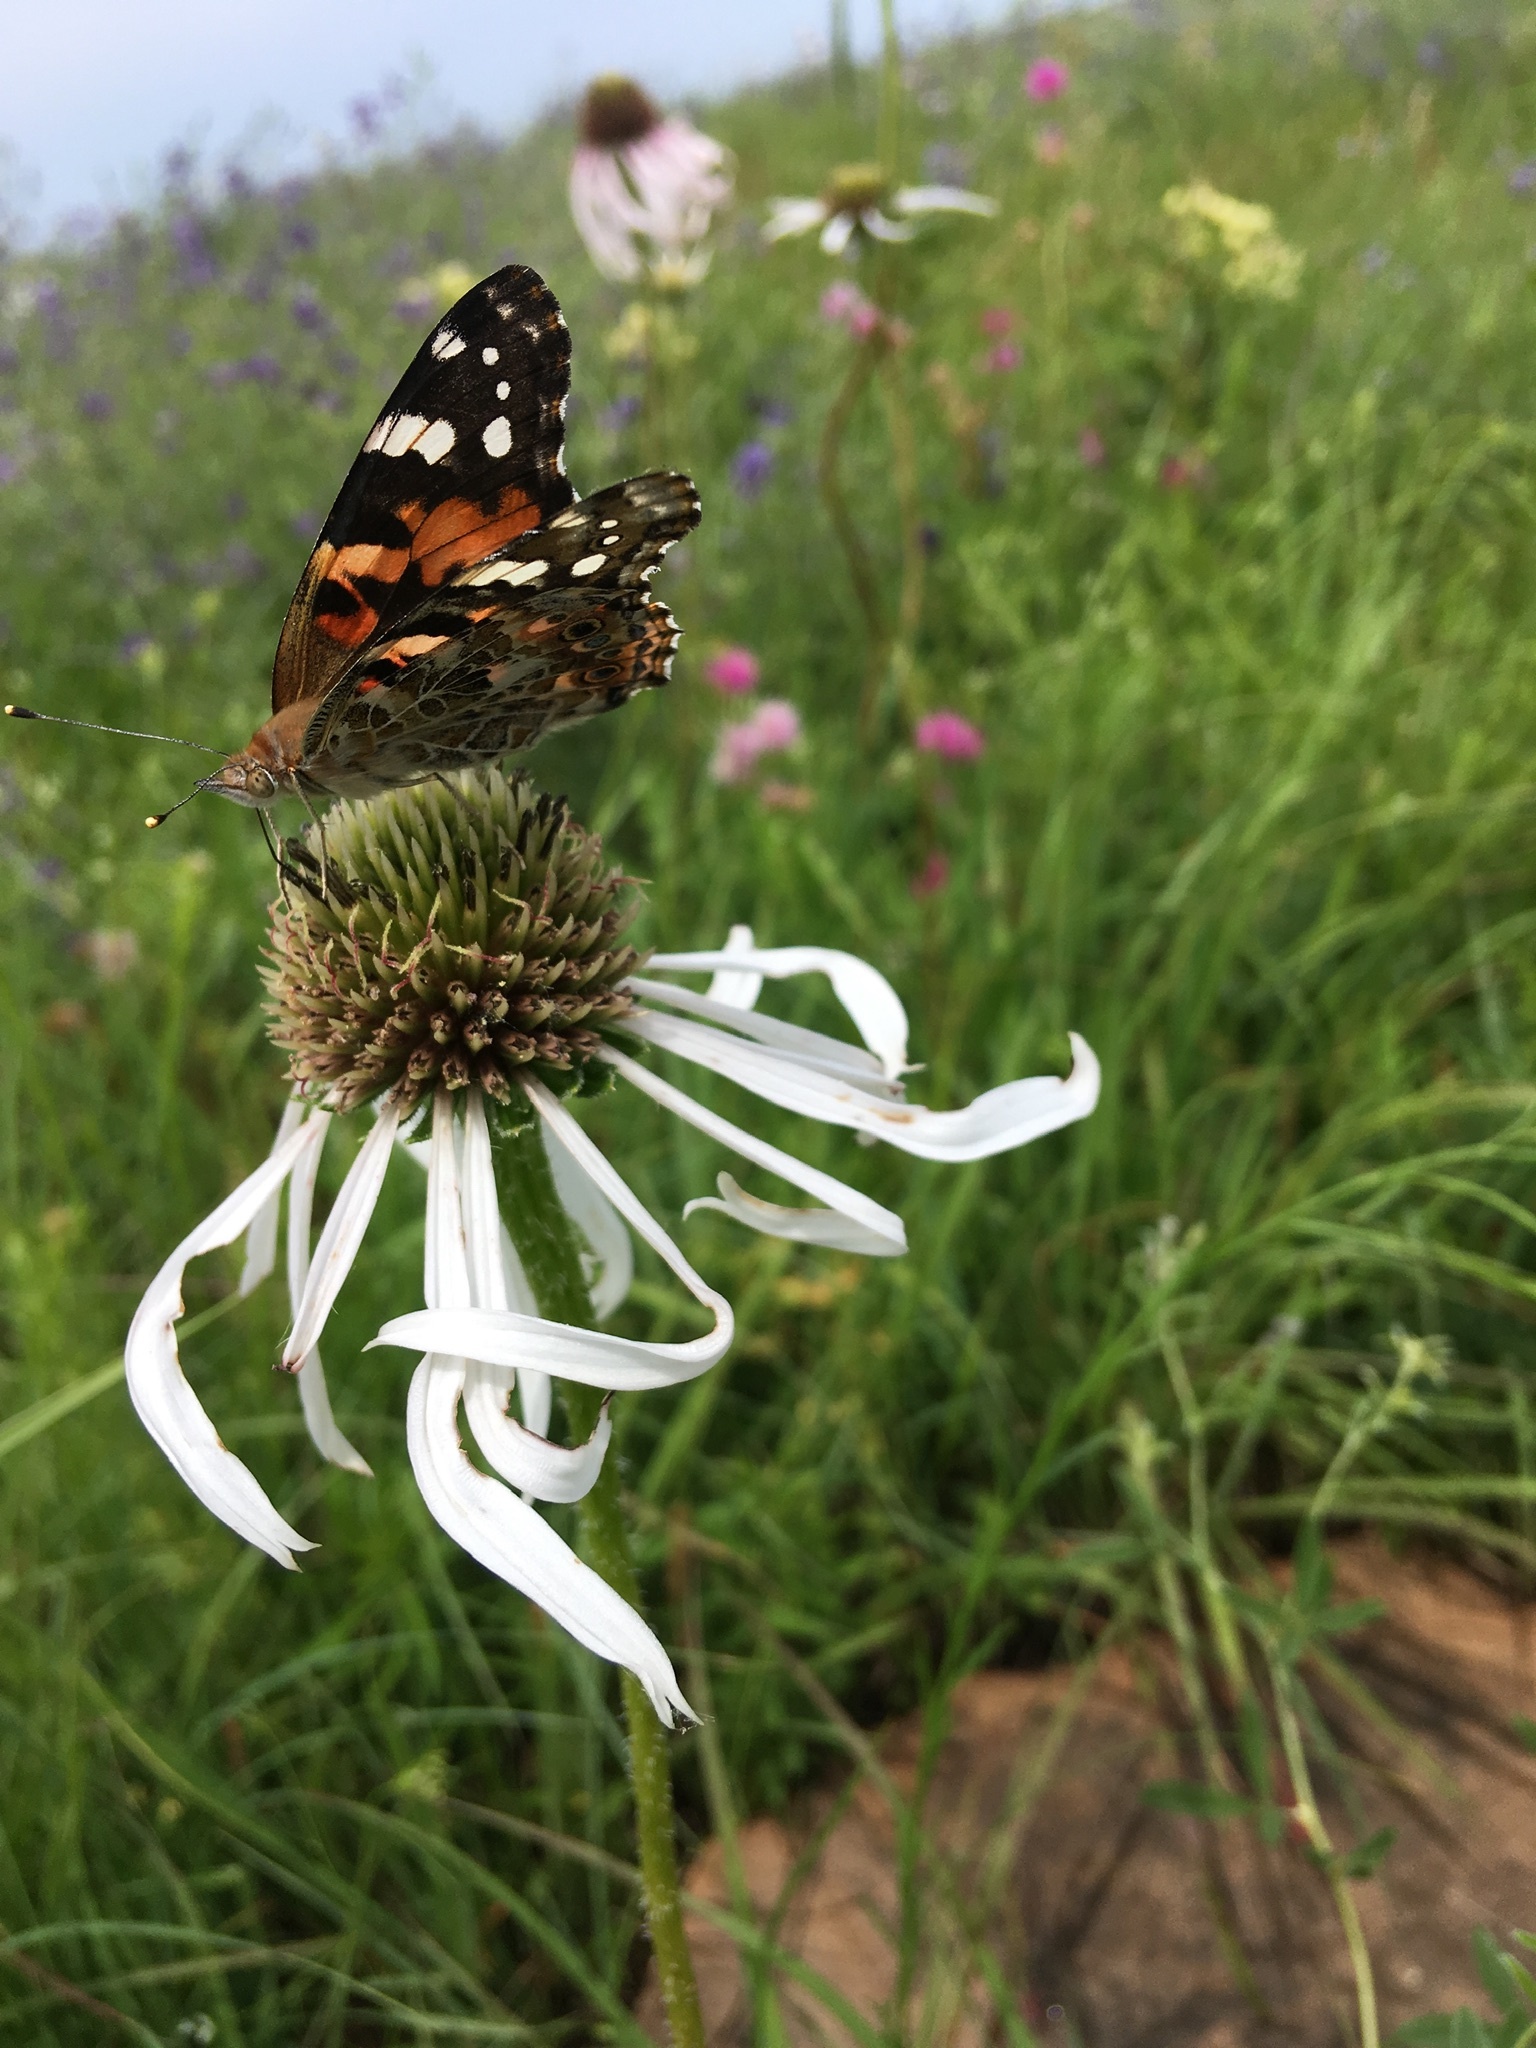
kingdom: Animalia
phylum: Arthropoda
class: Insecta
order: Lepidoptera
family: Nymphalidae
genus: Vanessa
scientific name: Vanessa cardui
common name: Painted lady
